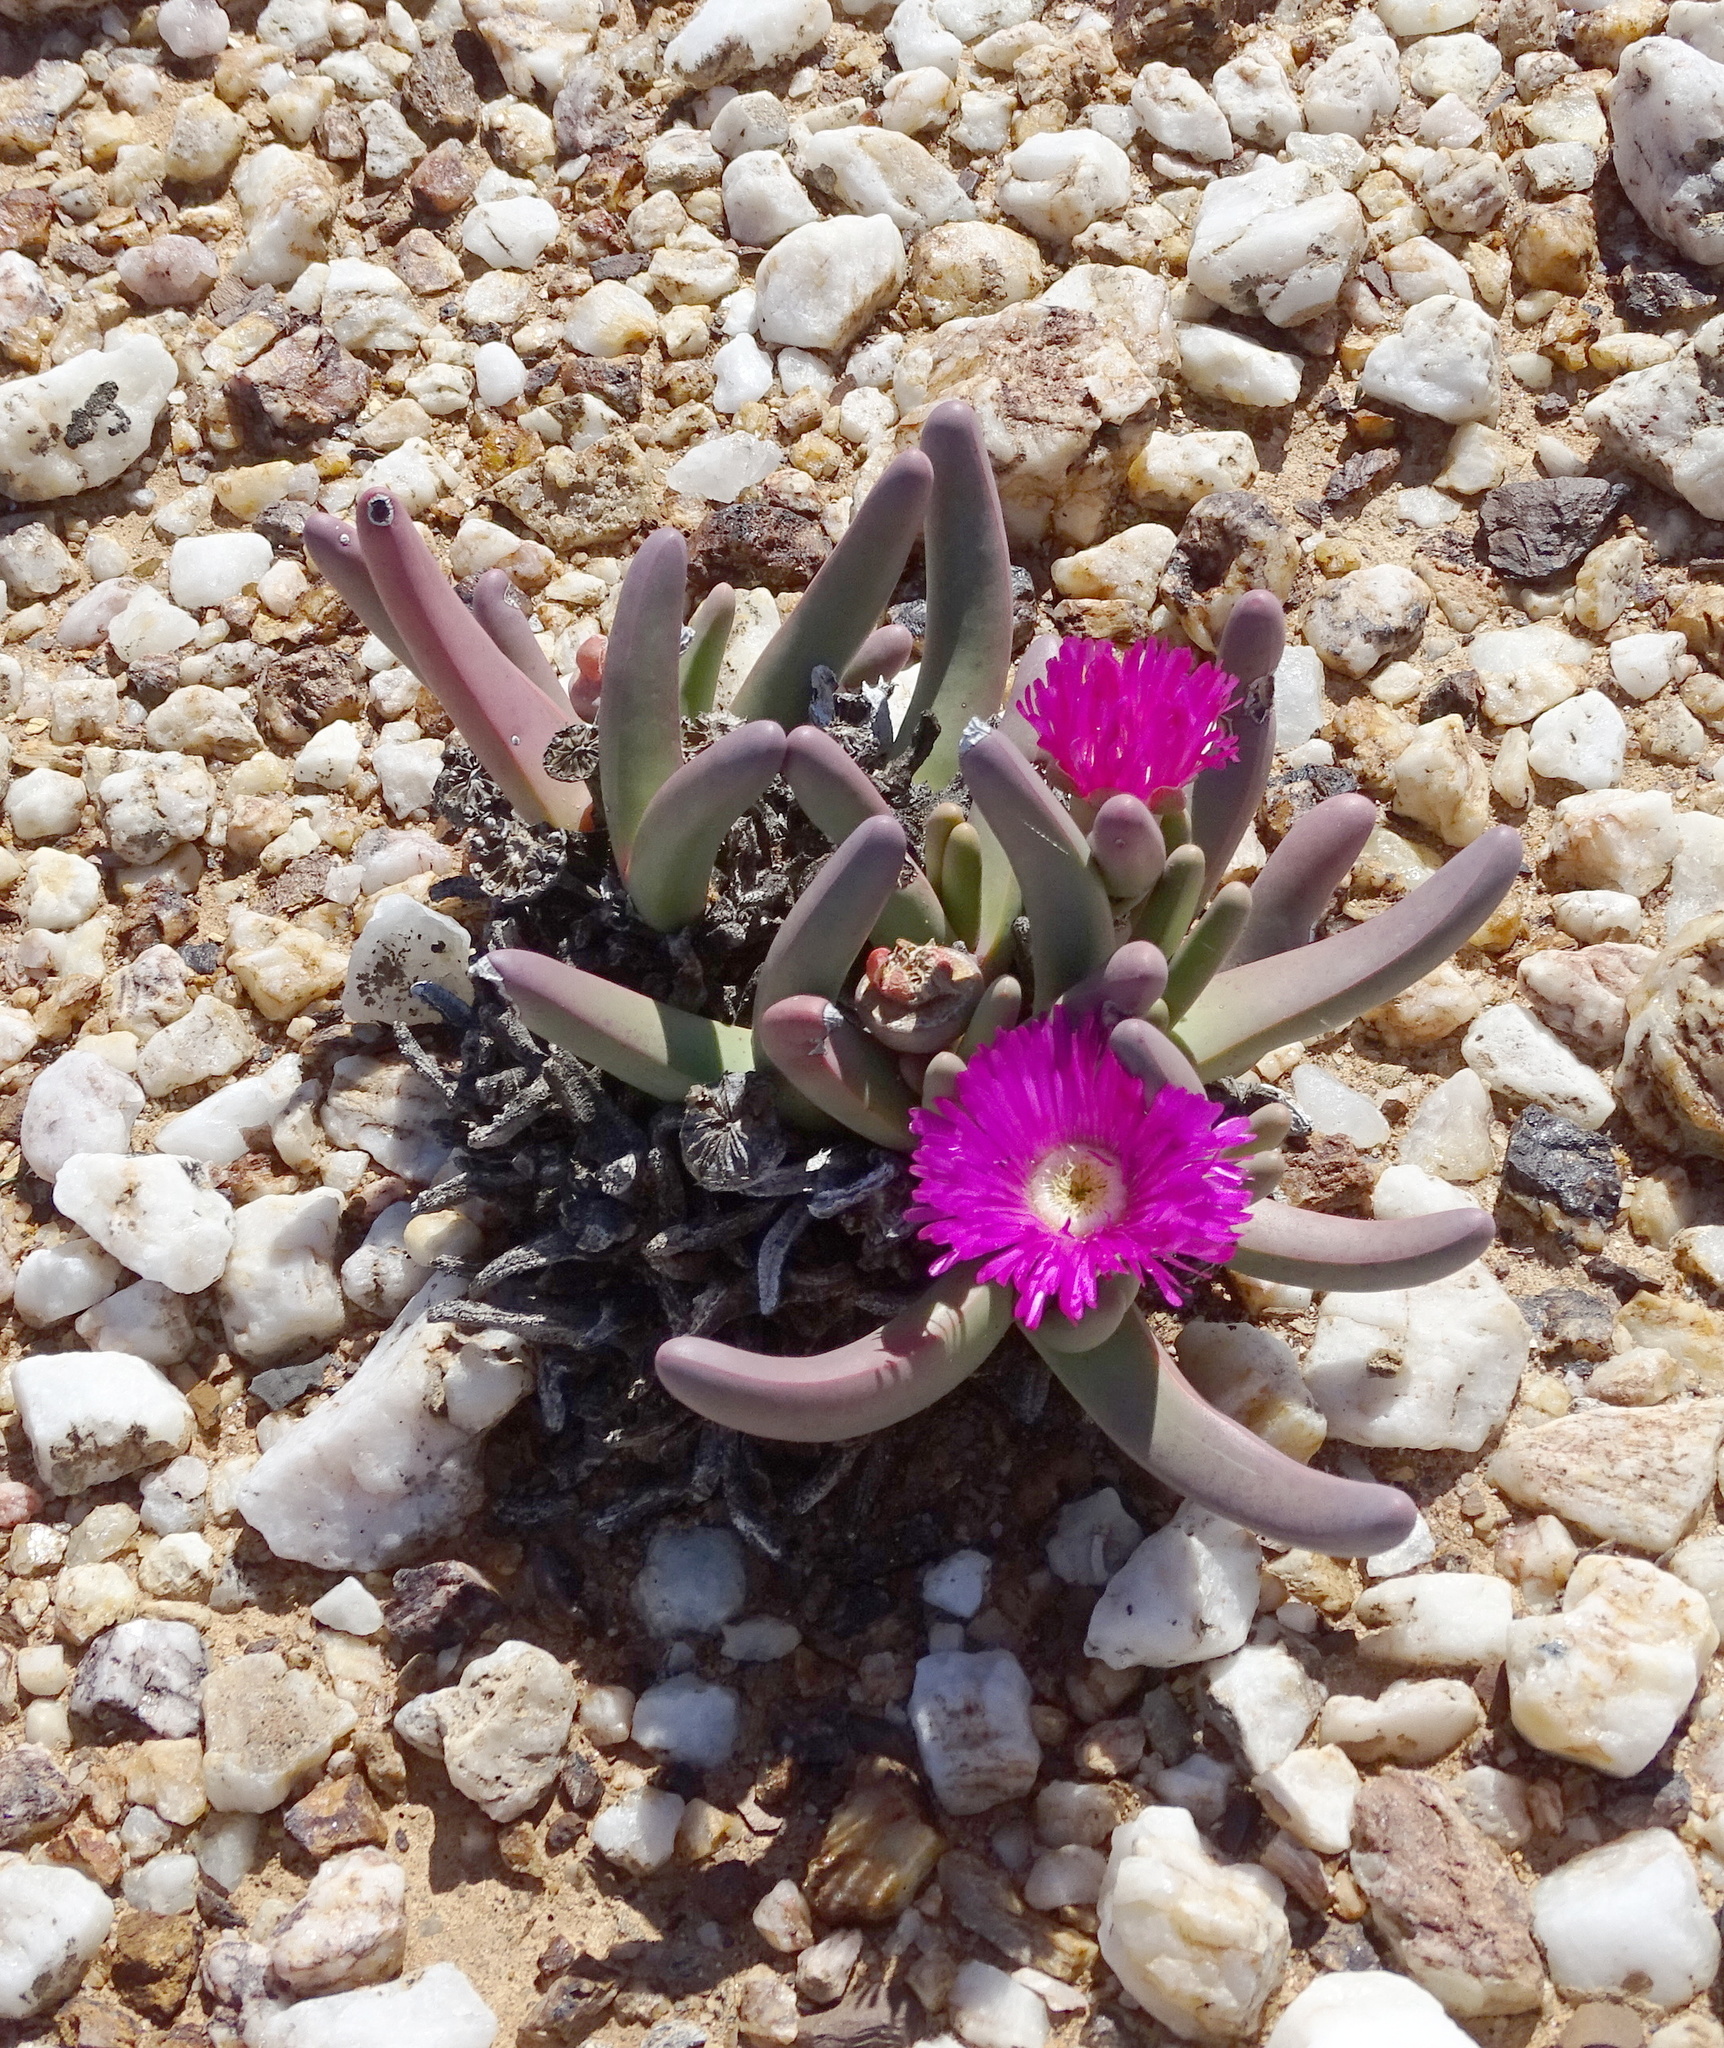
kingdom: Plantae
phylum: Tracheophyta
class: Magnoliopsida
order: Caryophyllales
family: Aizoaceae
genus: Argyroderma
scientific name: Argyroderma fissum
